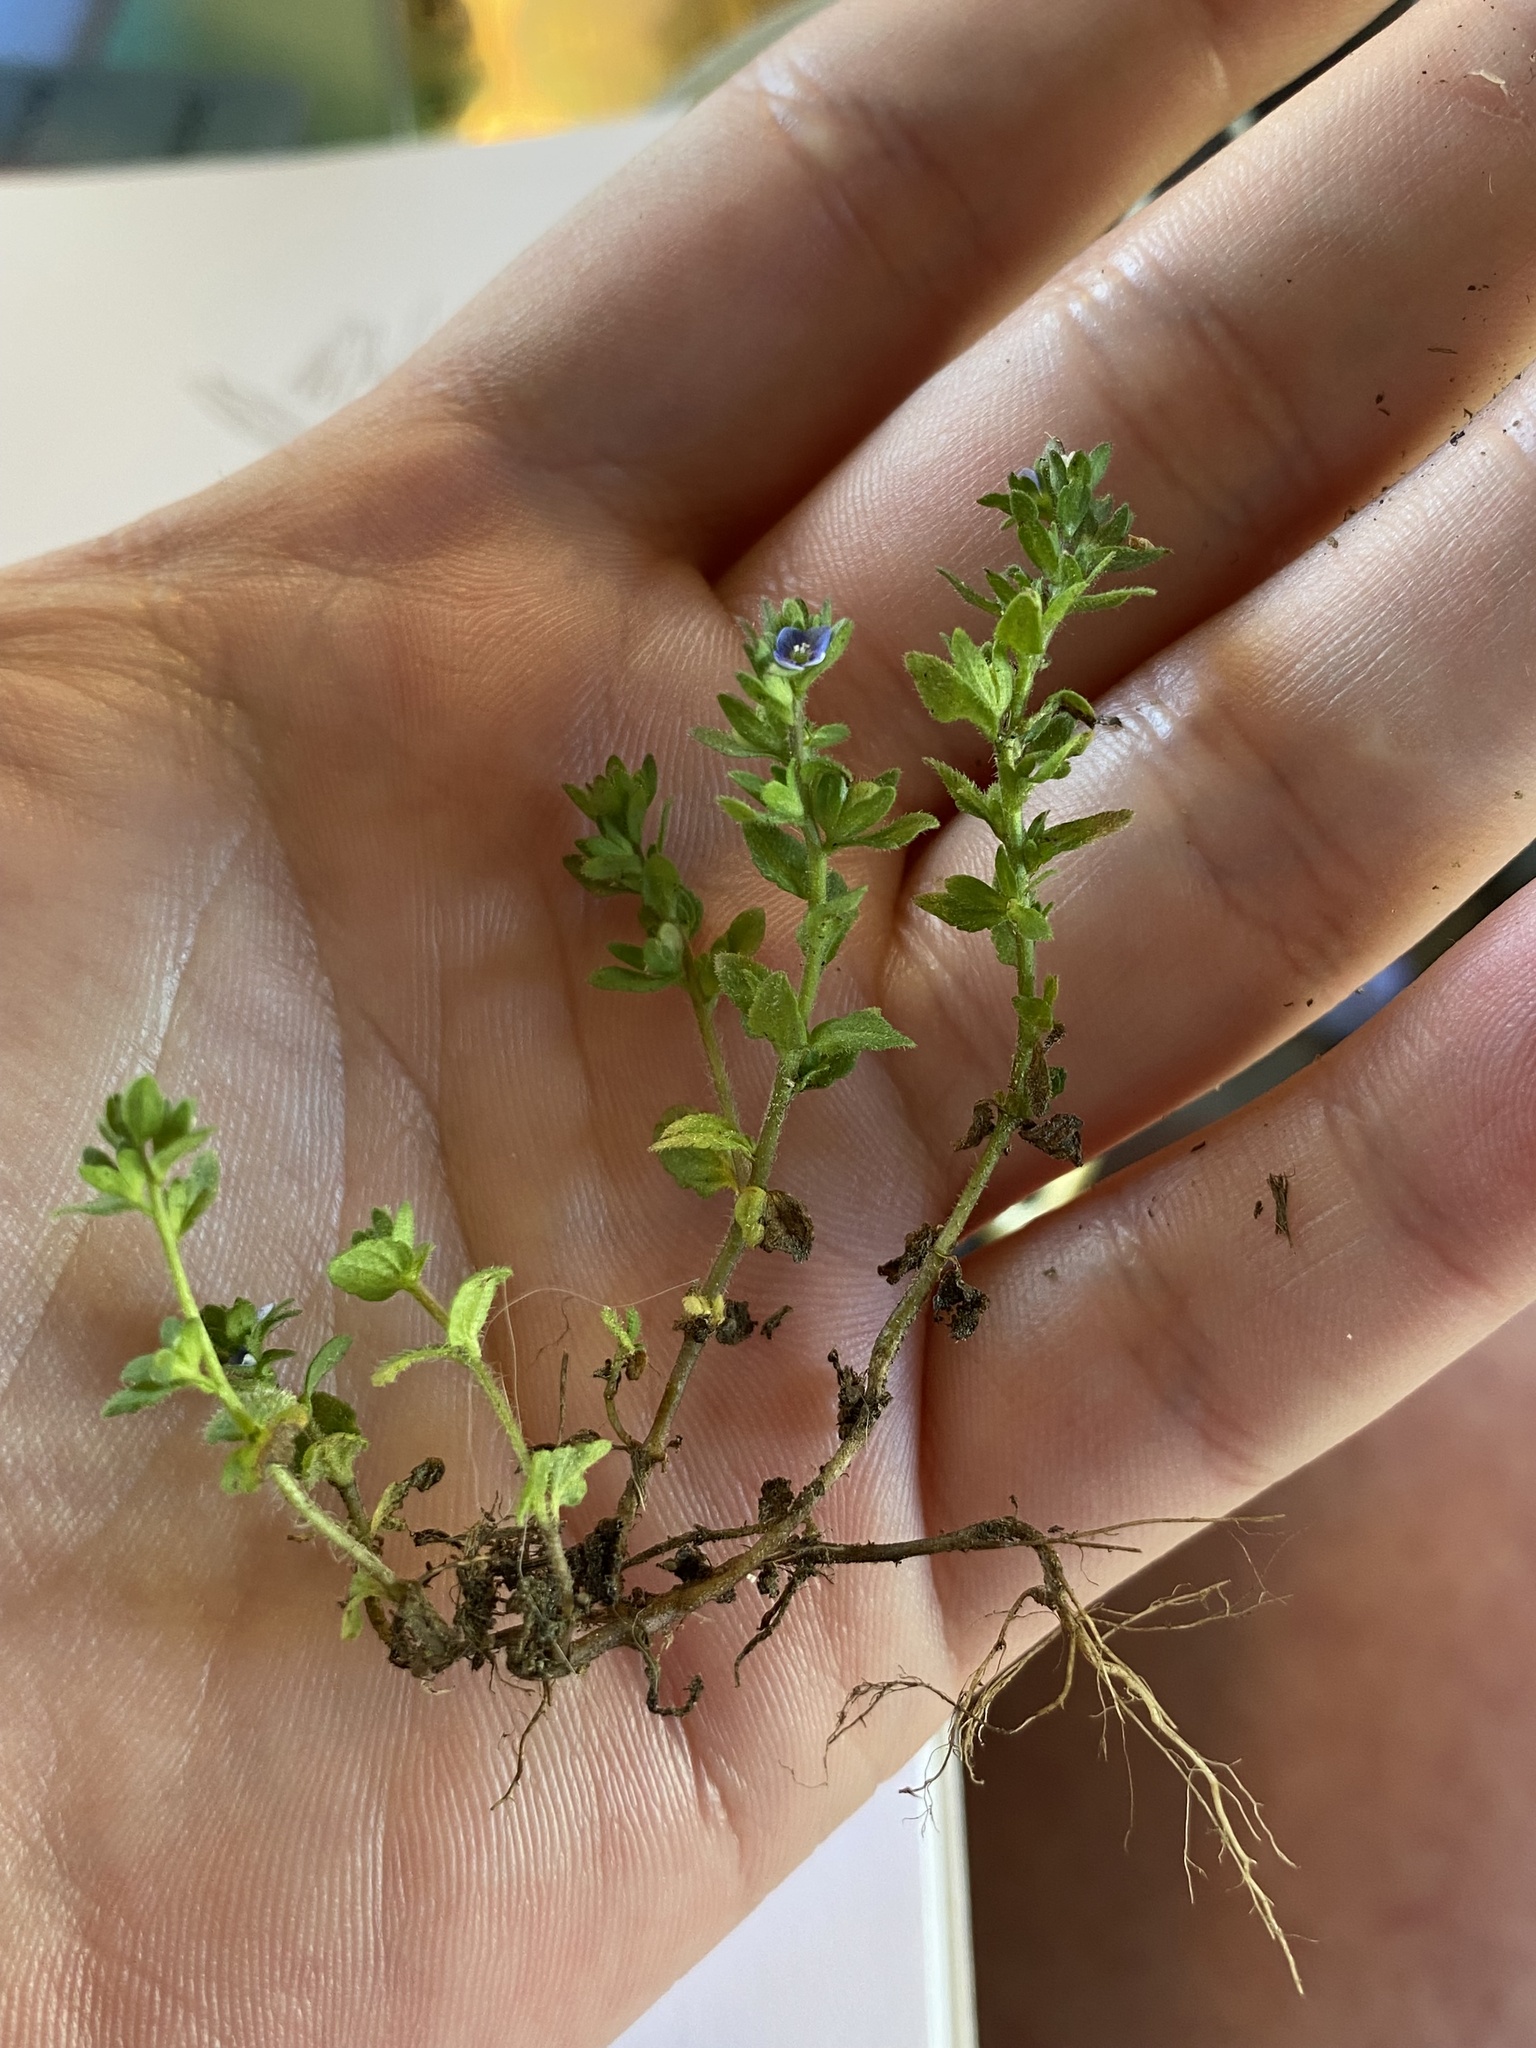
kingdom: Plantae
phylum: Tracheophyta
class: Magnoliopsida
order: Lamiales
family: Plantaginaceae
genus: Veronica
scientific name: Veronica arvensis
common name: Corn speedwell
